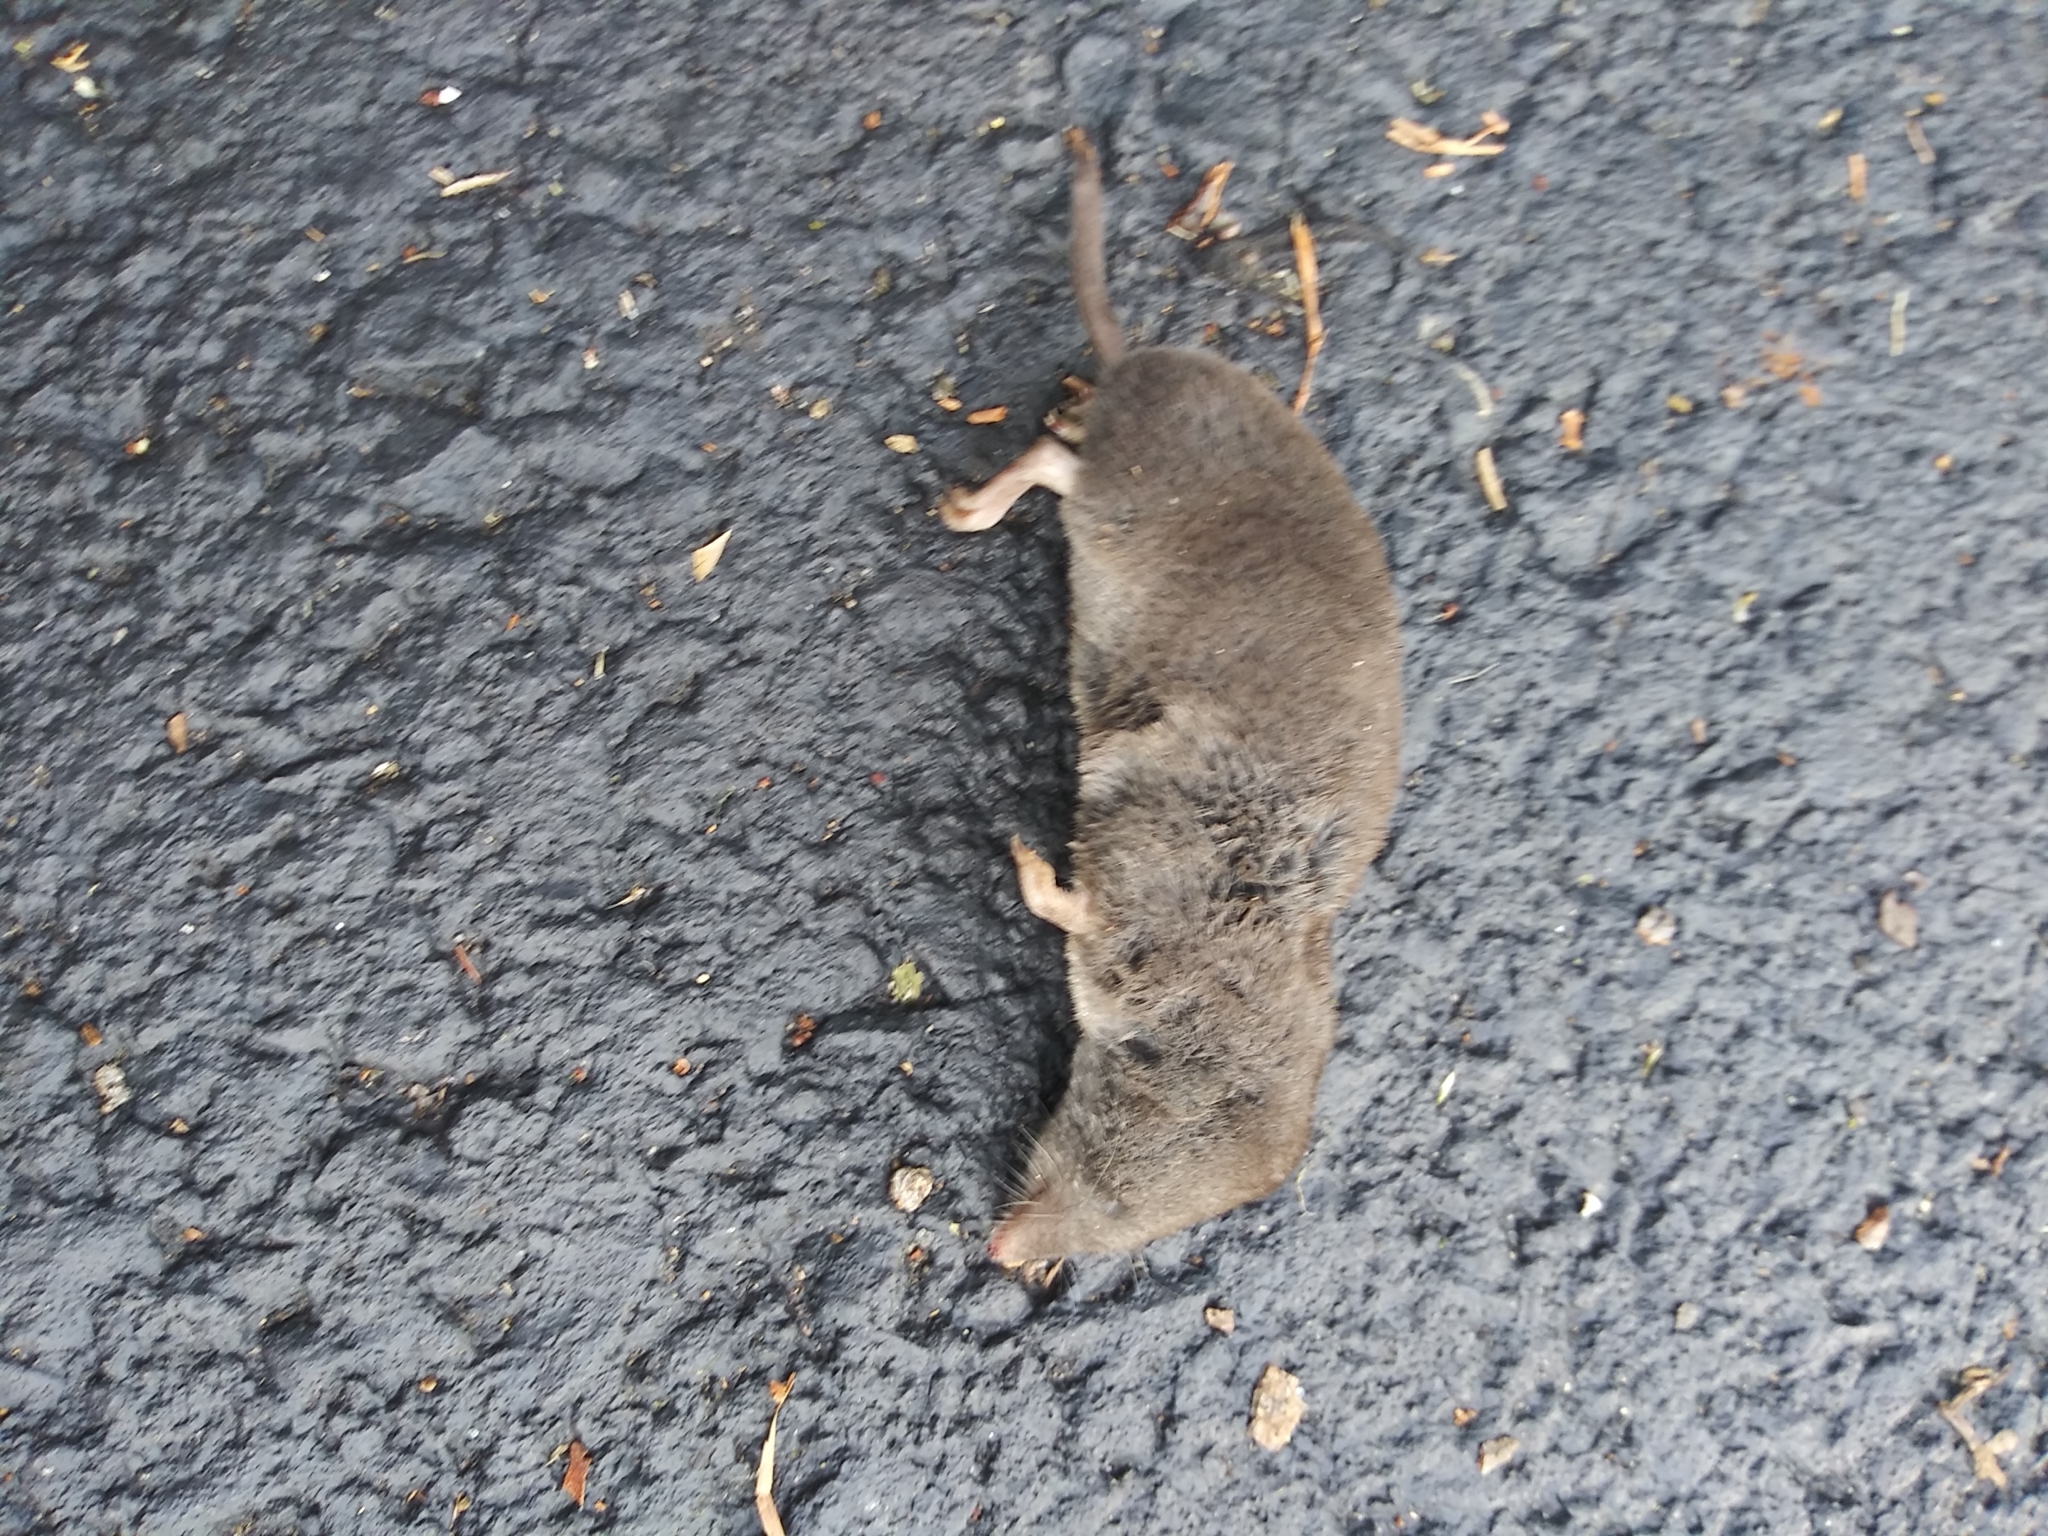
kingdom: Animalia
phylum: Chordata
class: Mammalia
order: Soricomorpha
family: Soricidae
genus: Blarina
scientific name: Blarina brevicauda
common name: Northern short-tailed shrew
